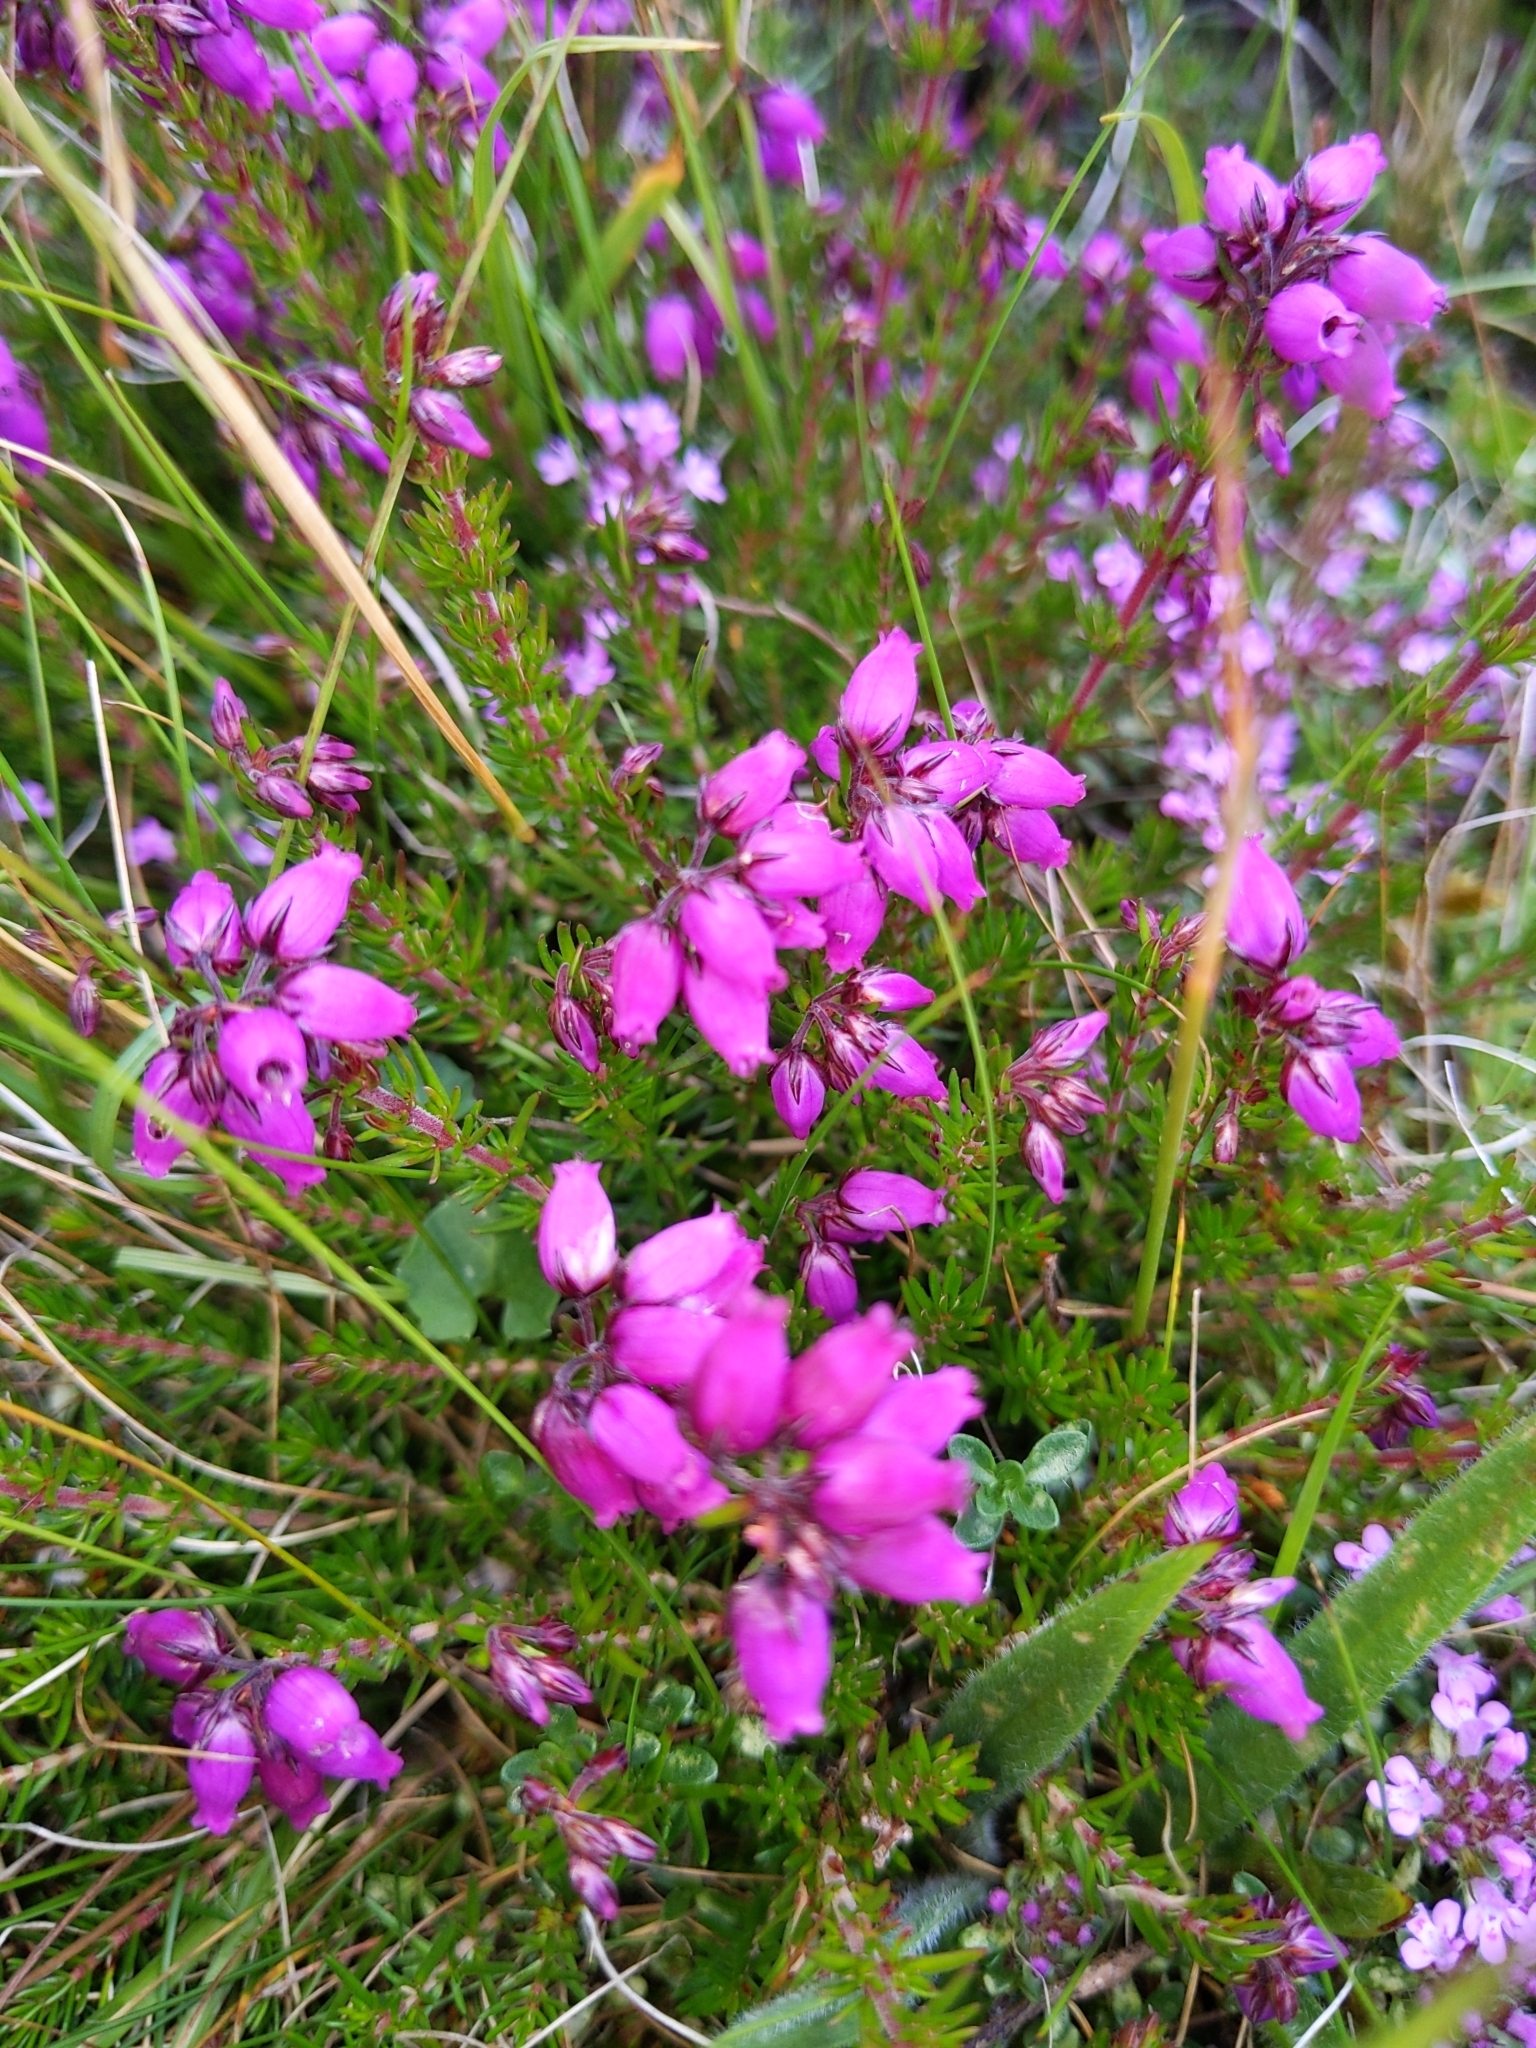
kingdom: Plantae
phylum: Tracheophyta
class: Magnoliopsida
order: Ericales
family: Ericaceae
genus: Erica
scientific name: Erica cinerea
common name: Bell heather
